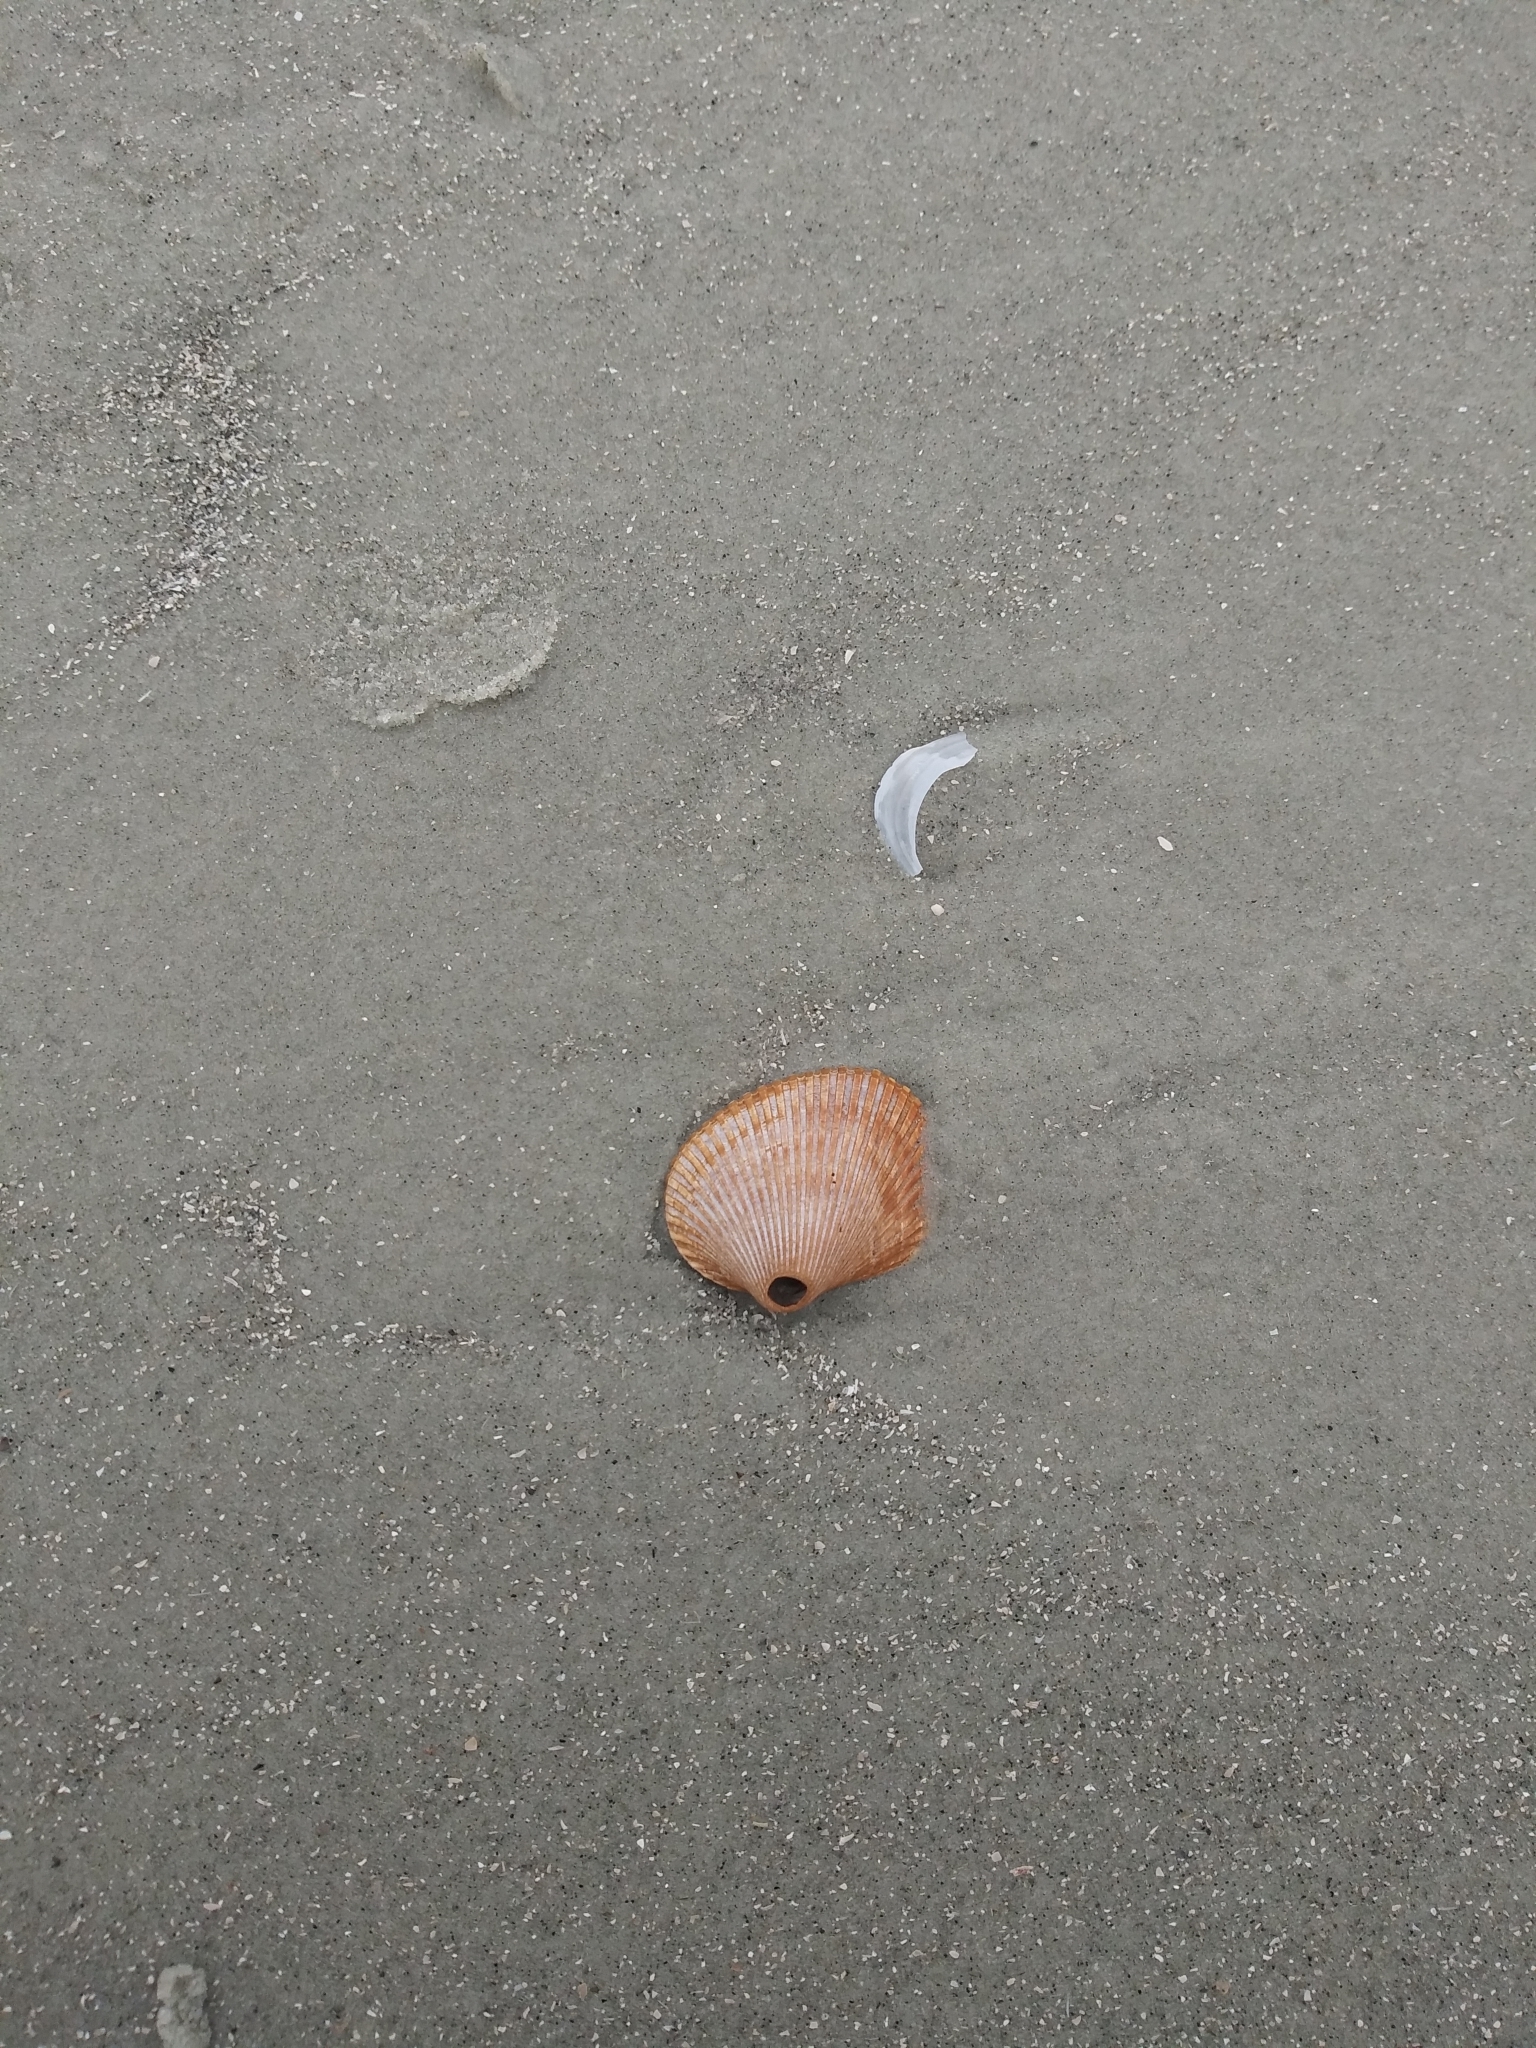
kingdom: Animalia
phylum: Mollusca
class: Bivalvia
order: Arcida
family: Arcidae
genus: Lunarca
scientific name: Lunarca ovalis
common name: Blood ark
